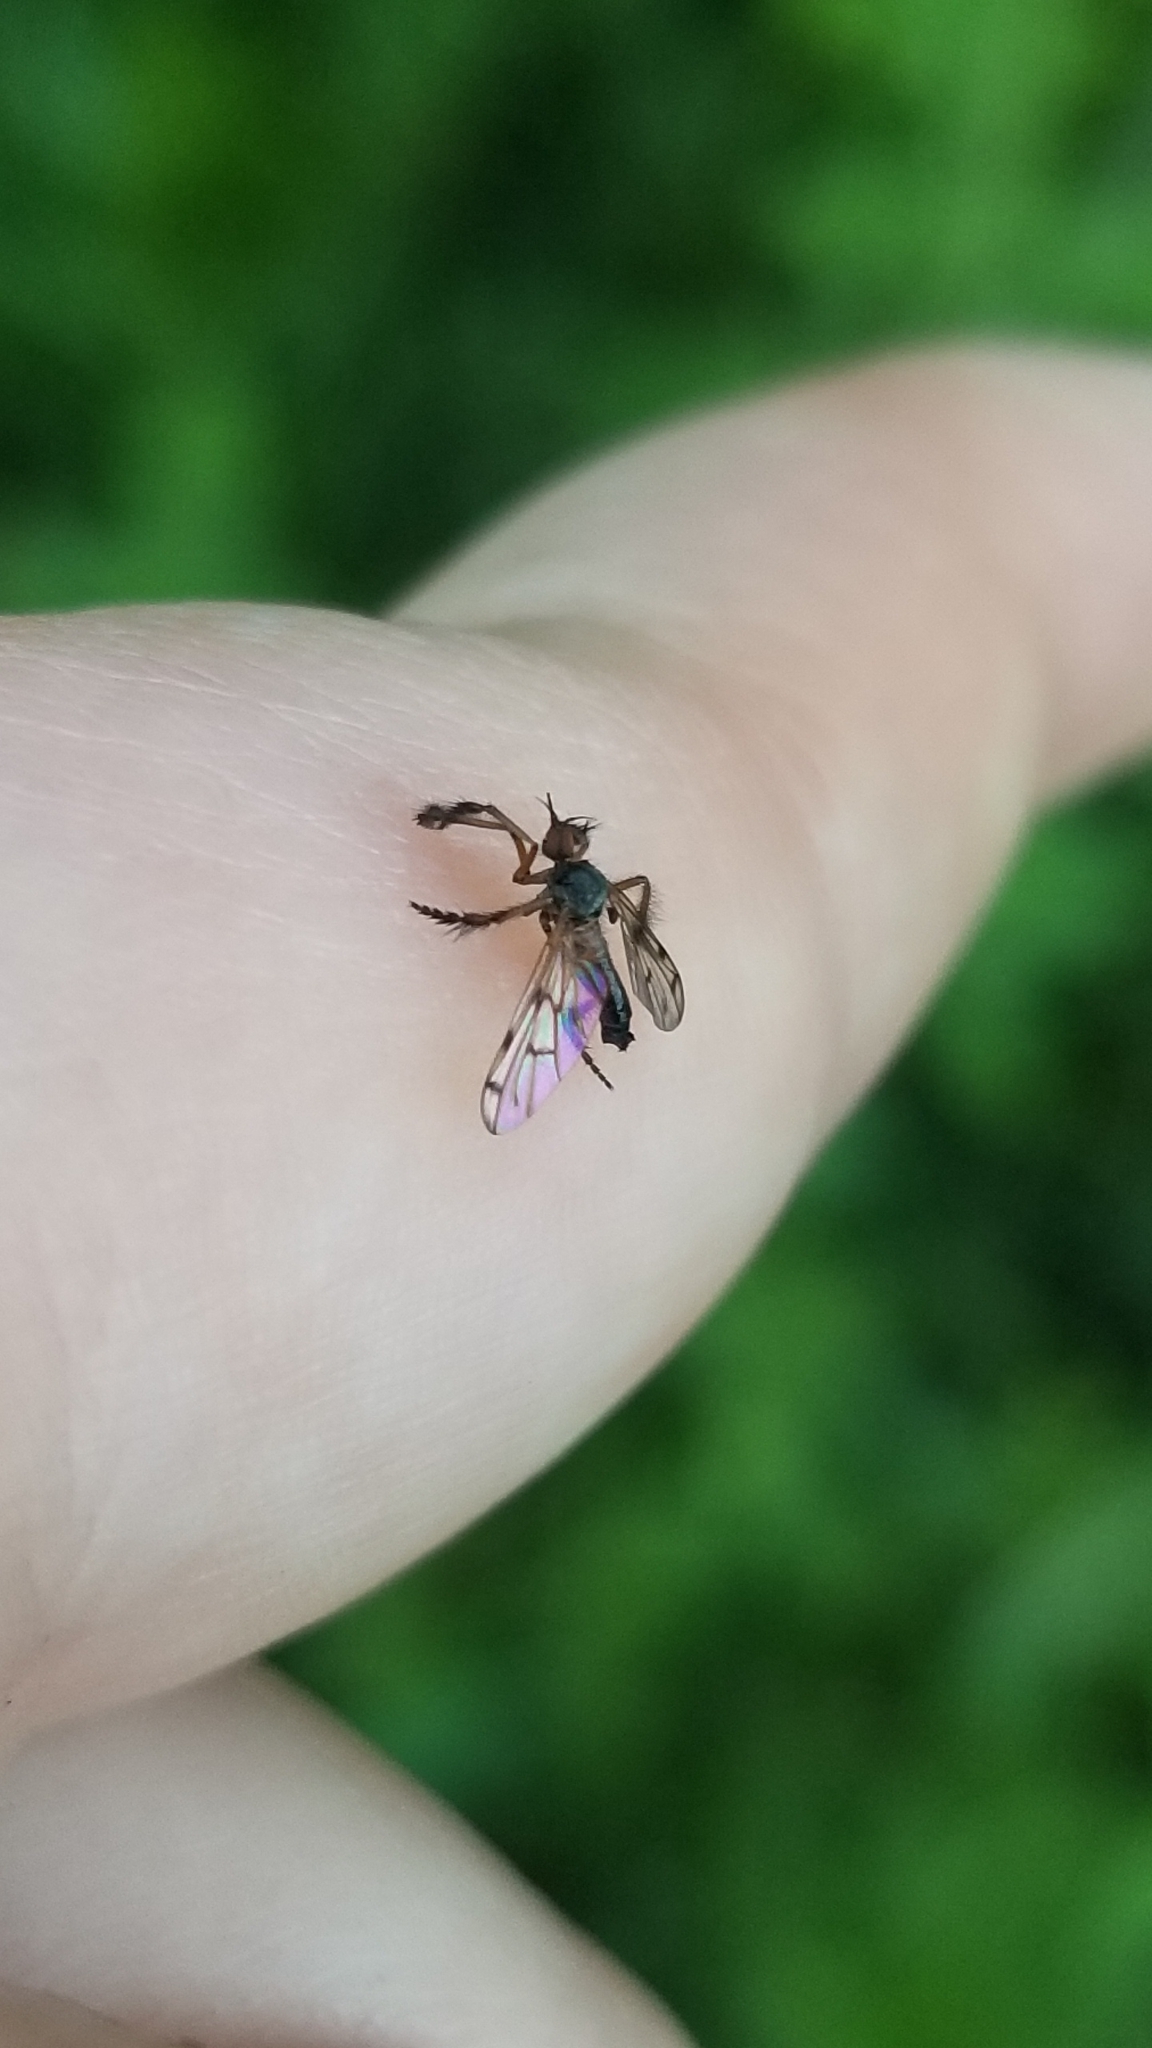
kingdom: Animalia
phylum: Arthropoda
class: Insecta
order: Diptera
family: Empididae
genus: Empis
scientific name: Empis clausa
